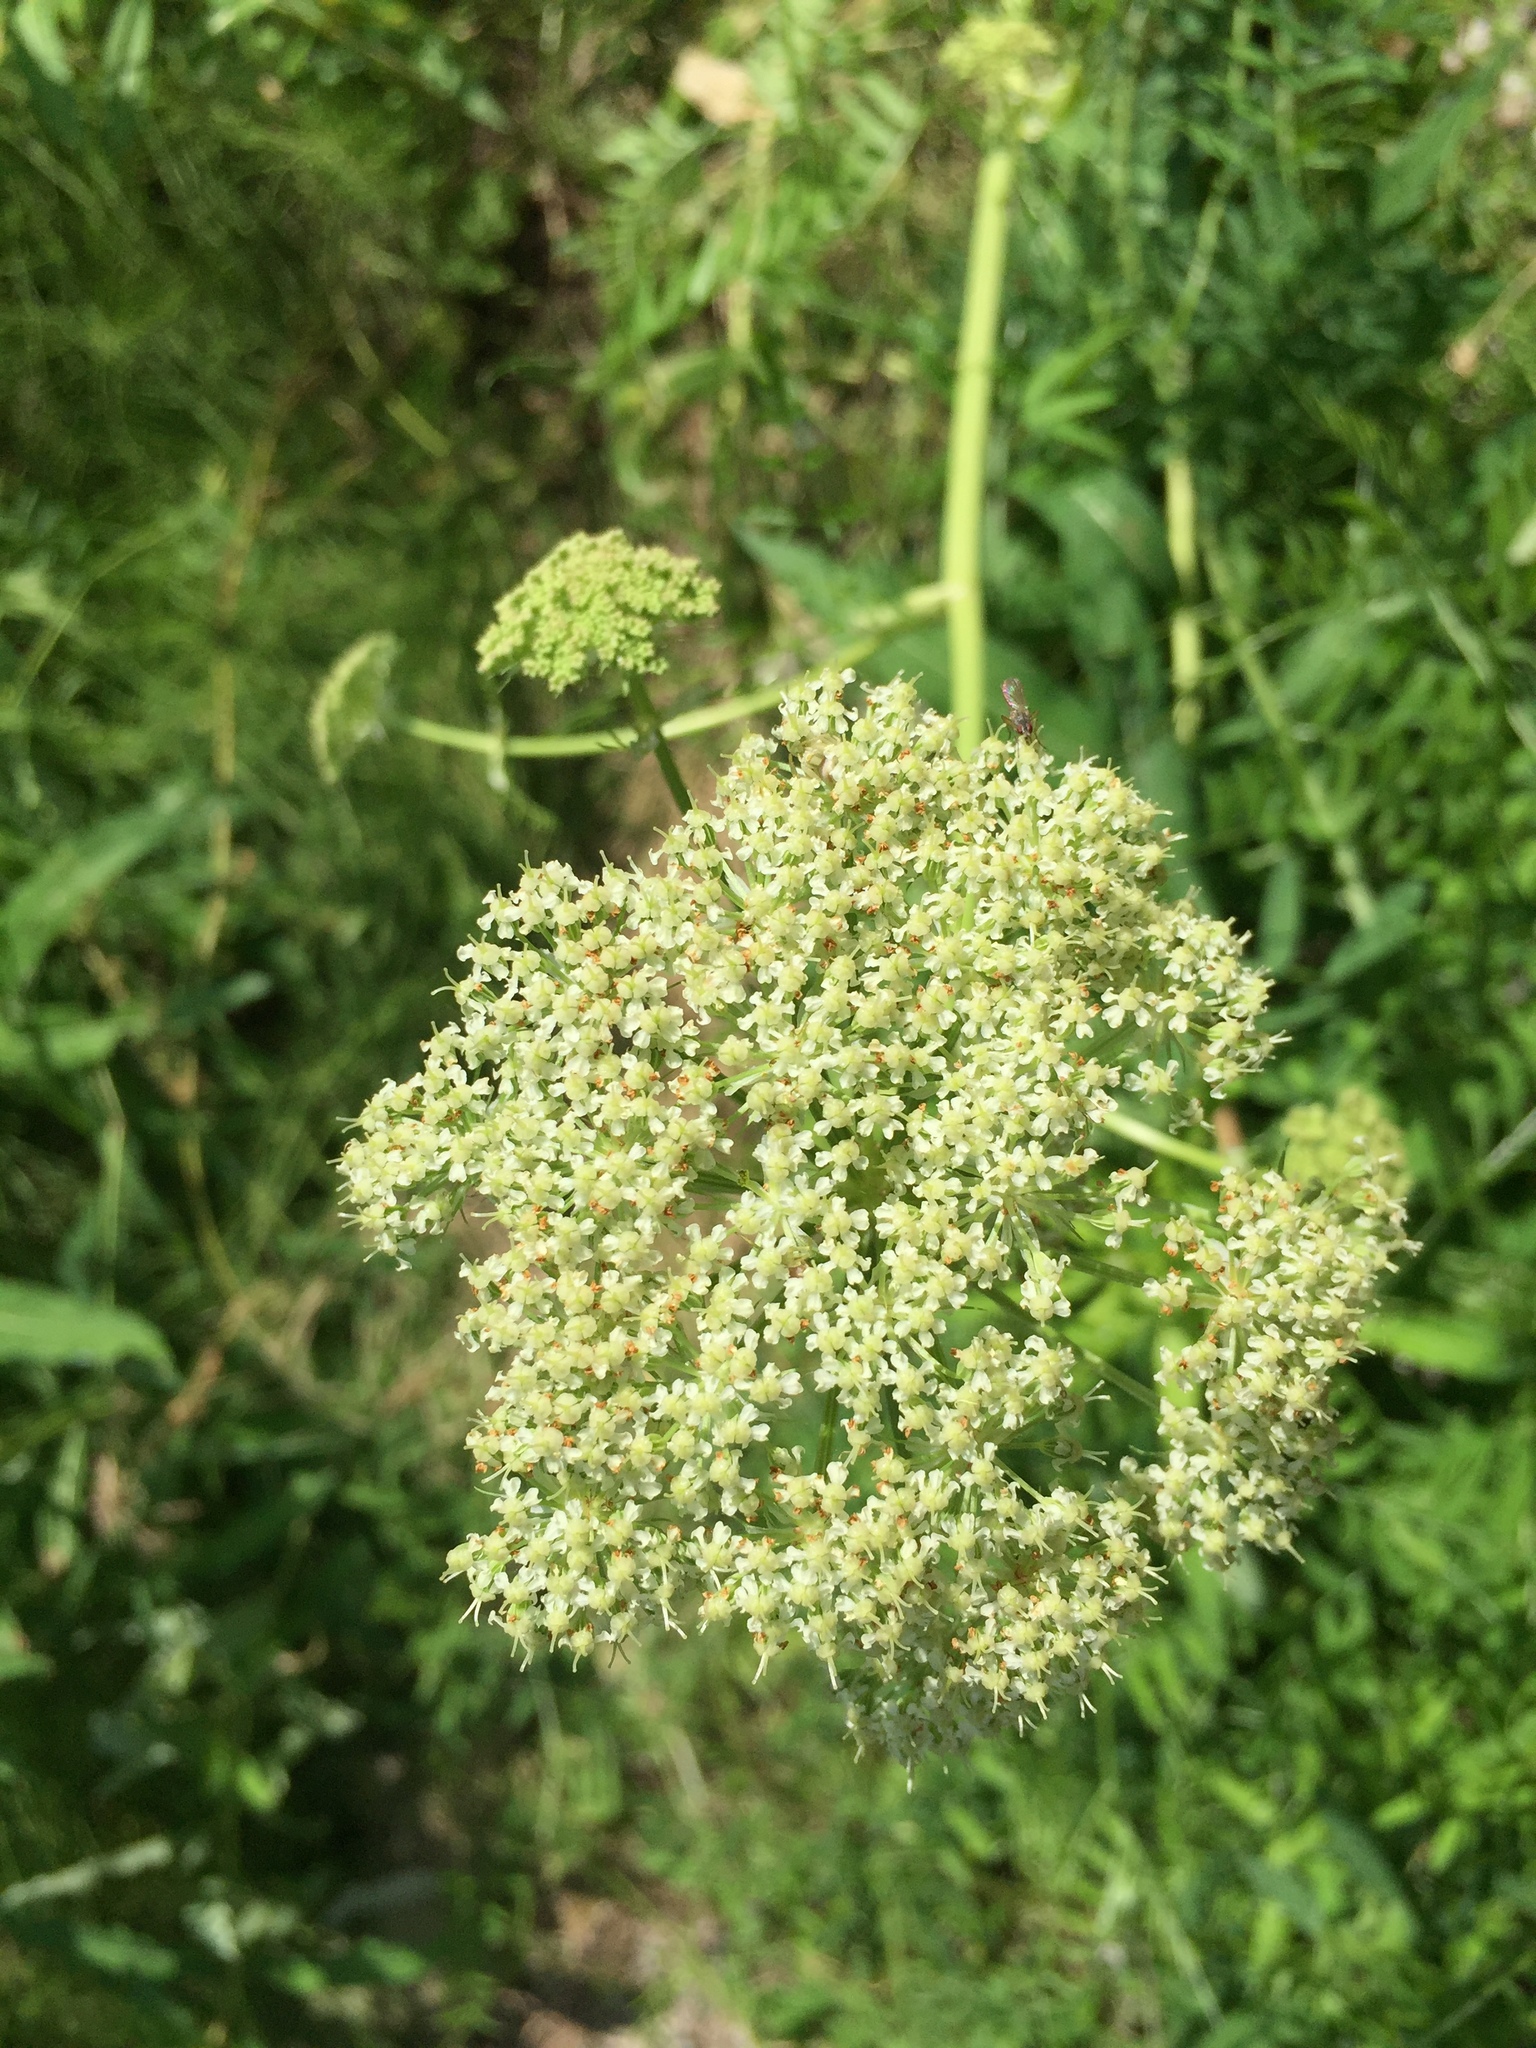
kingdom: Plantae
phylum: Tracheophyta
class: Magnoliopsida
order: Apiales
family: Apiaceae
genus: Cnidium
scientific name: Cnidium cnidiifolium
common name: Northern hemlock-parsley
